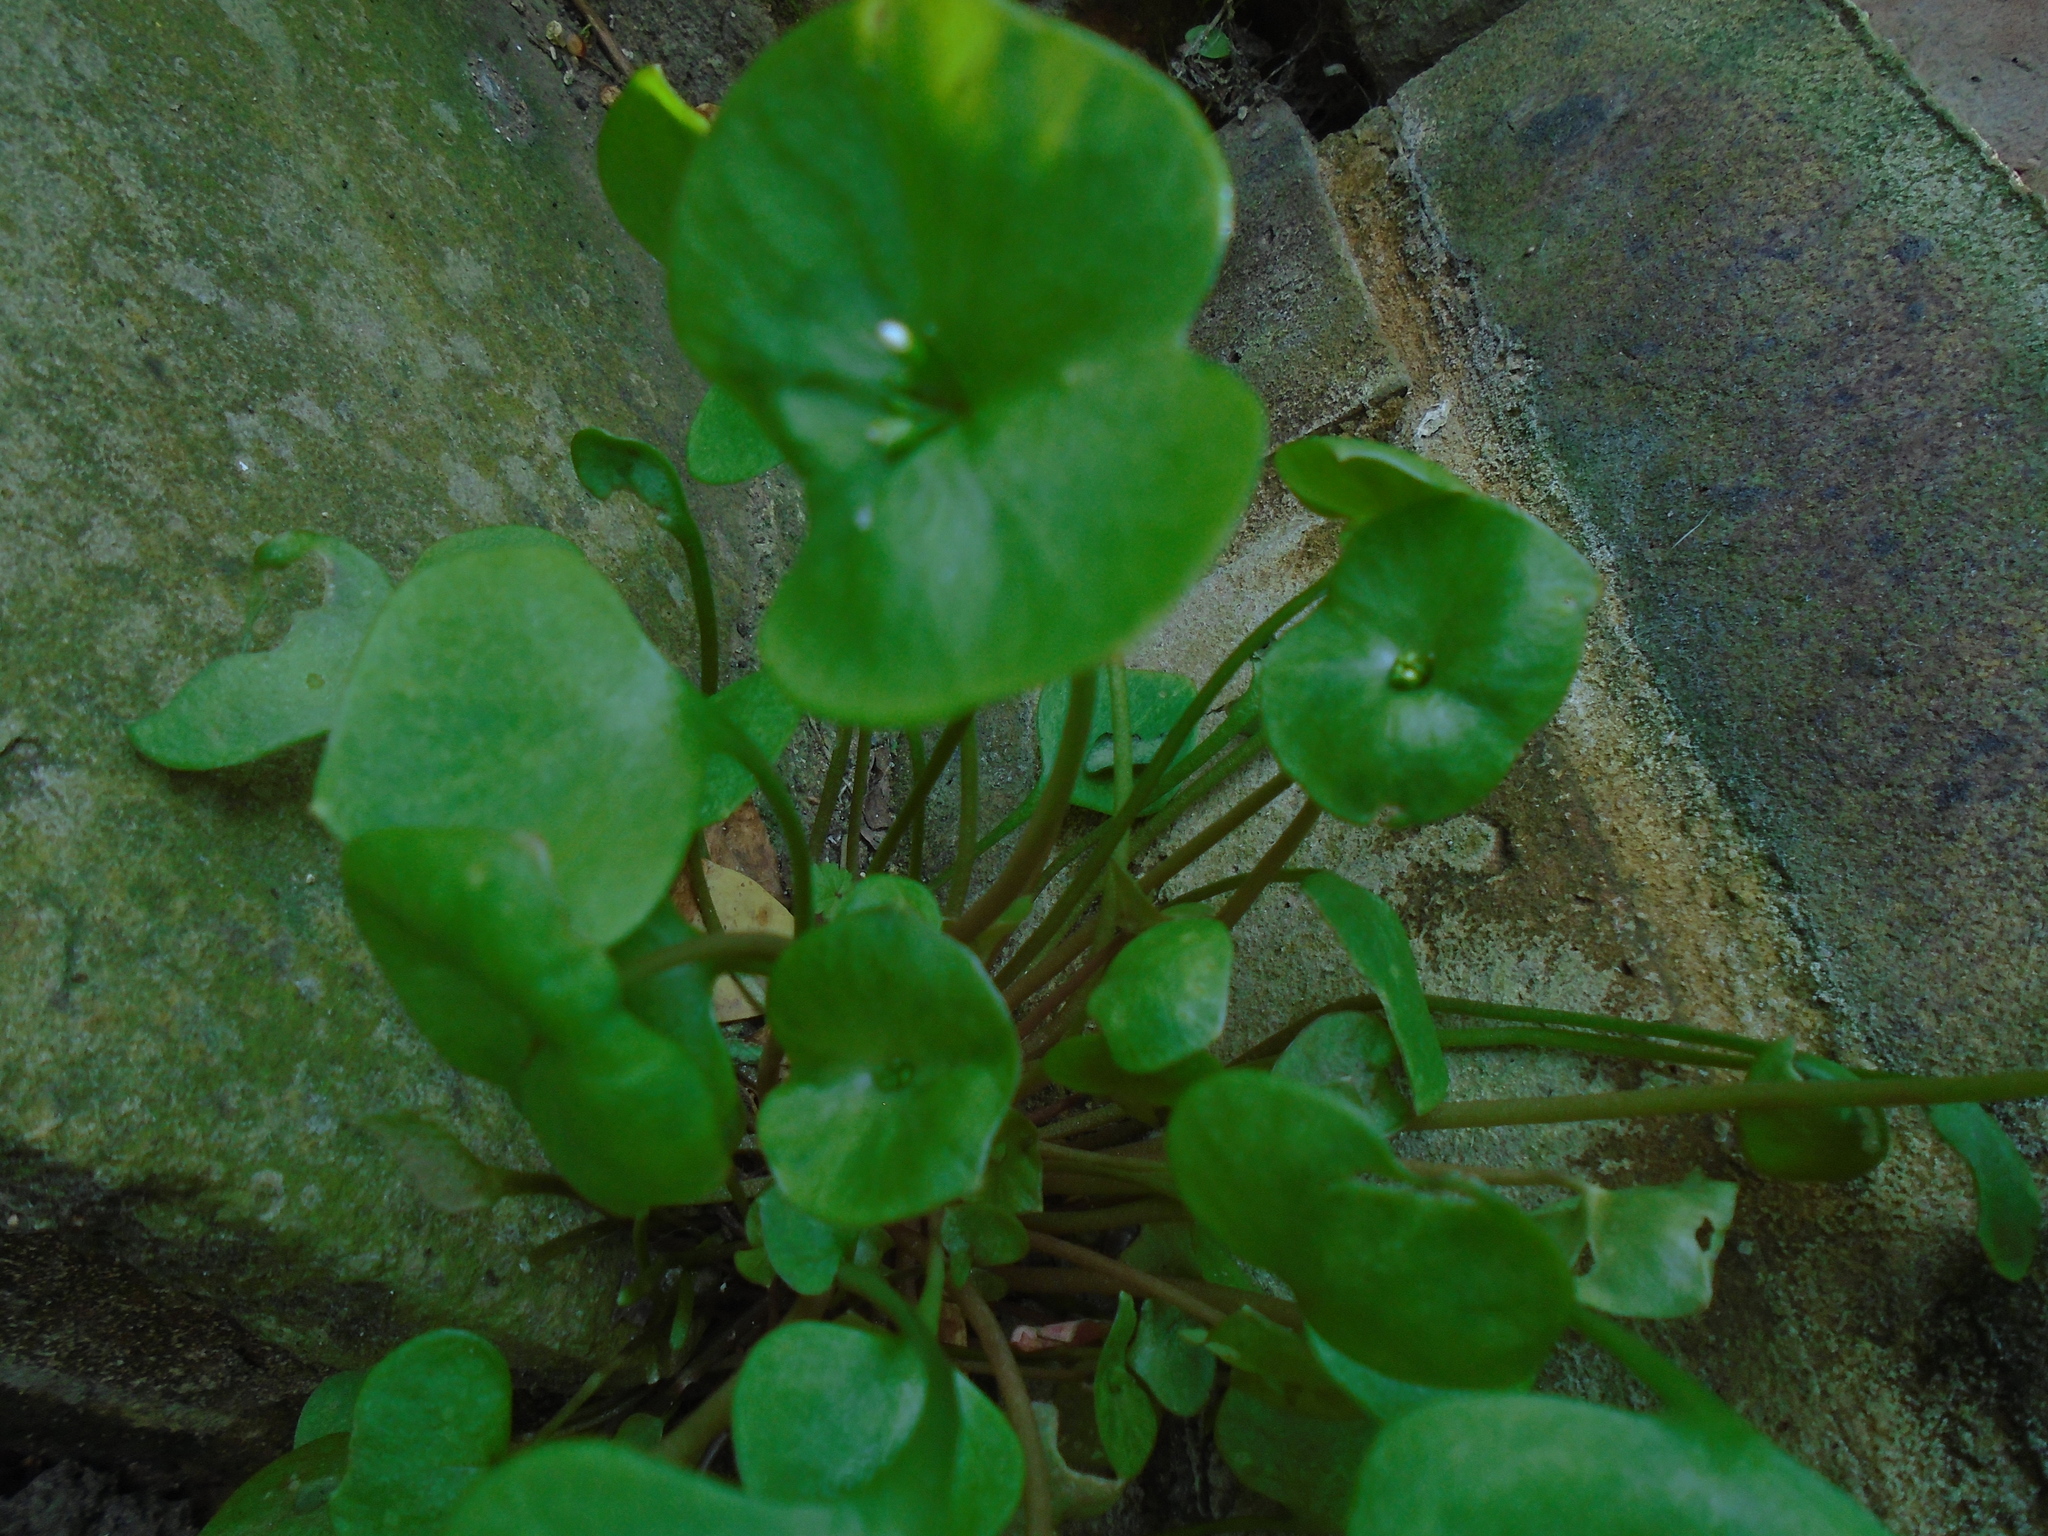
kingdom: Plantae
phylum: Tracheophyta
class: Magnoliopsida
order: Caryophyllales
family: Montiaceae
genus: Claytonia
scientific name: Claytonia perfoliata
